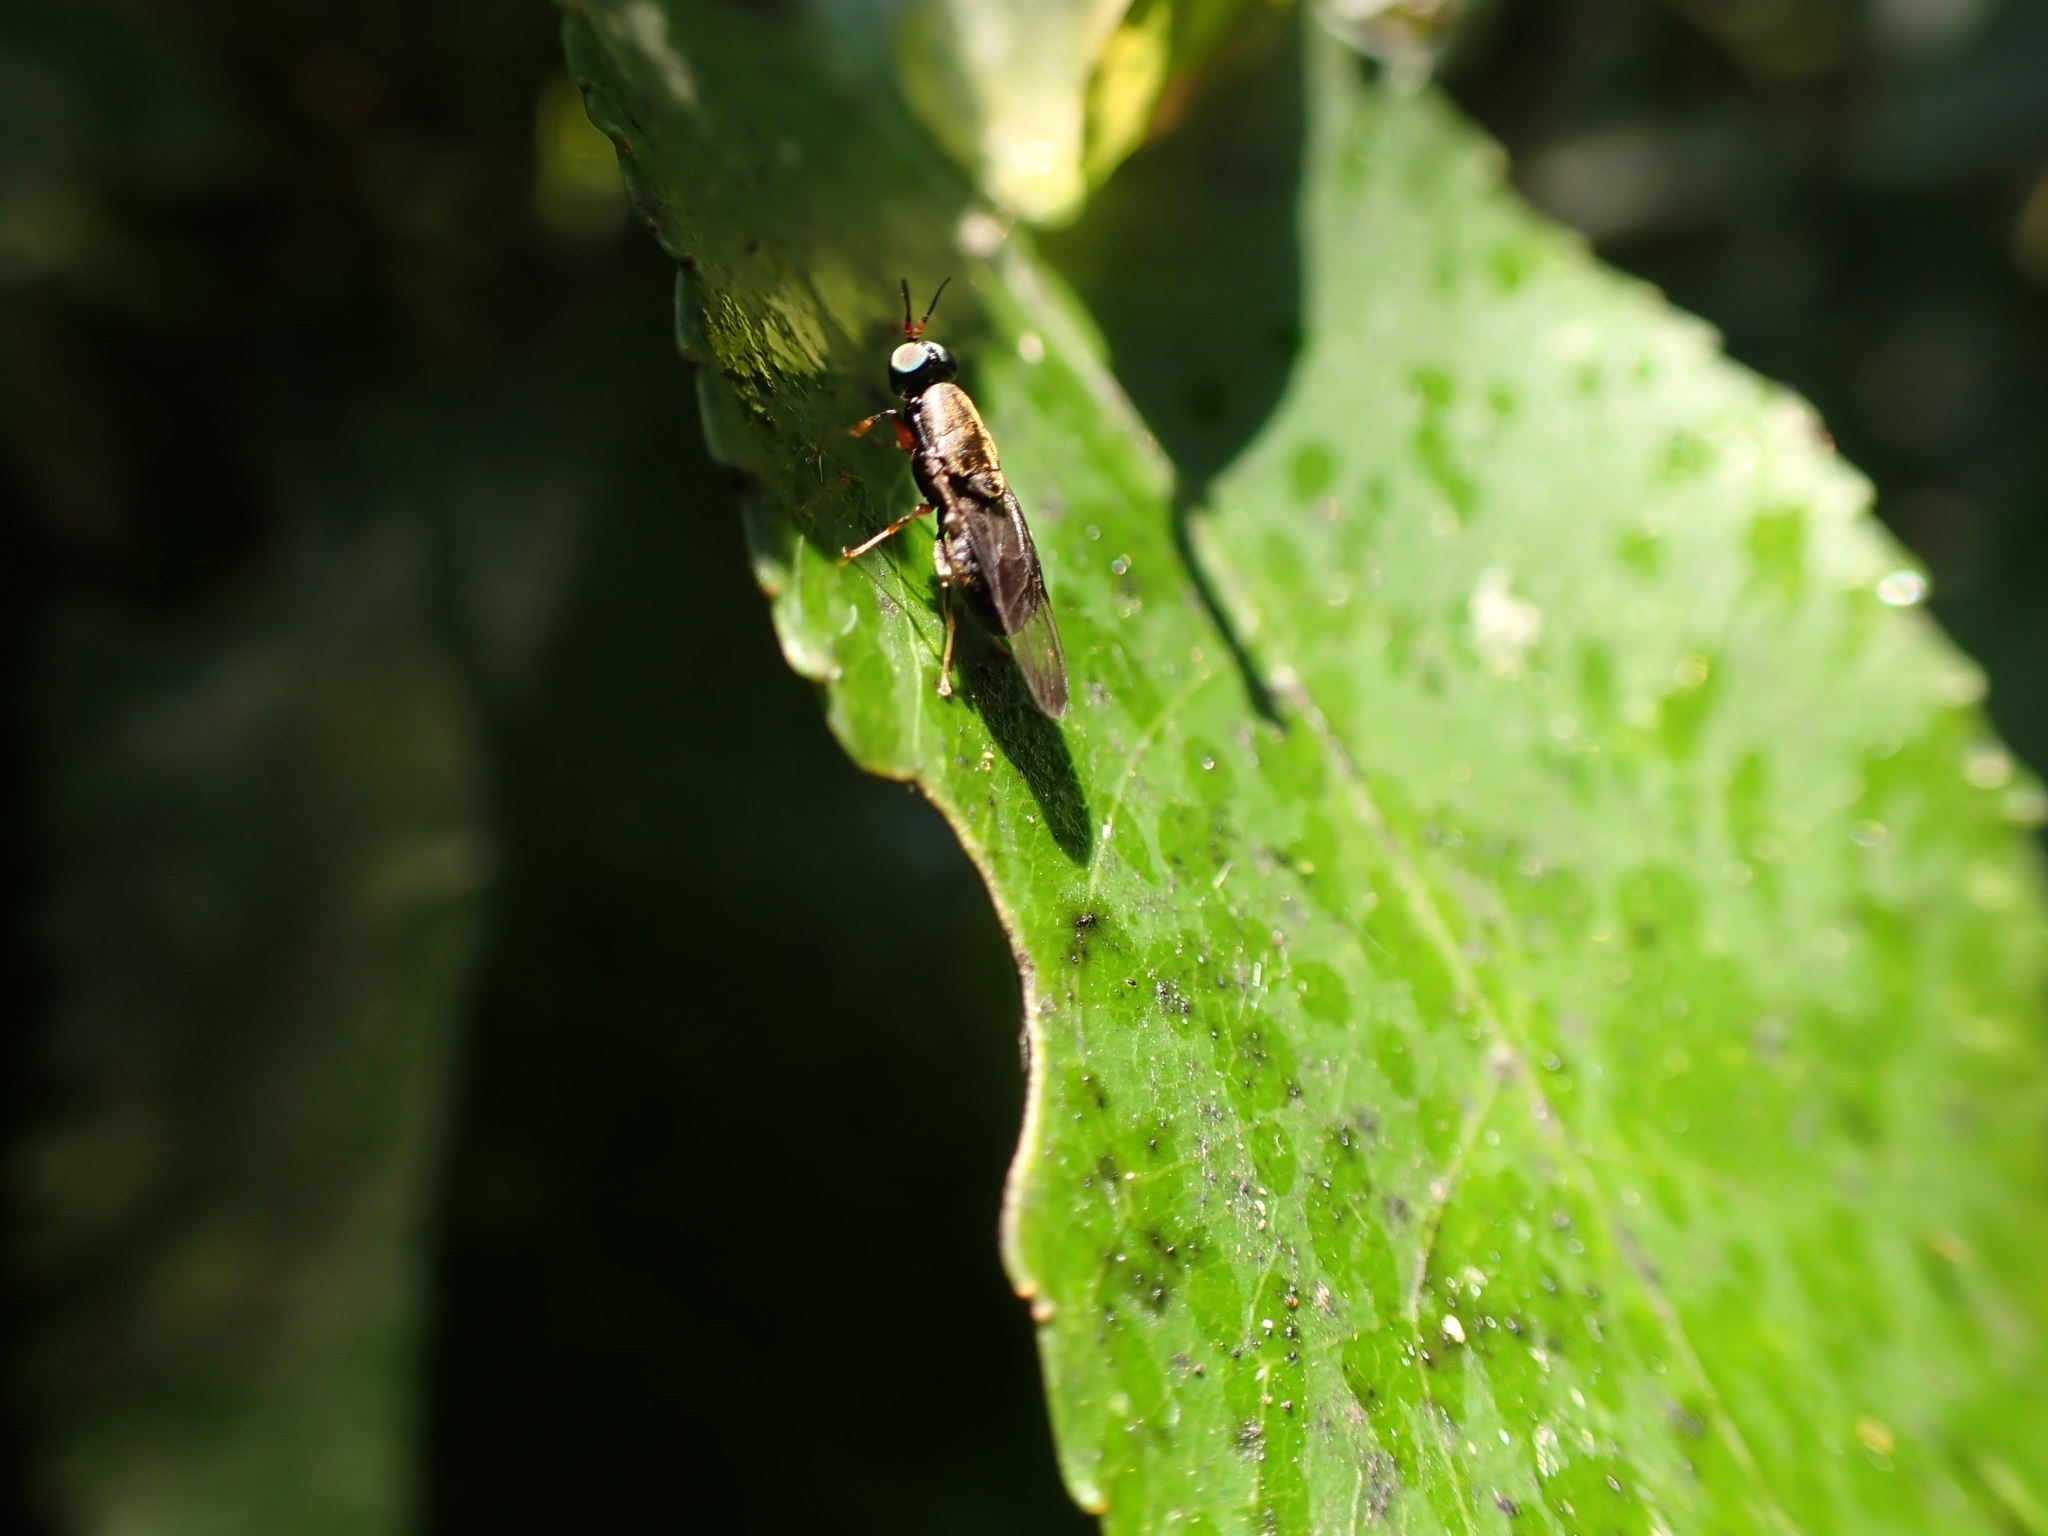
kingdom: Animalia
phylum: Arthropoda
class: Insecta
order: Diptera
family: Stratiomyidae
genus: Dysbiota
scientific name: Dysbiota peregrina
